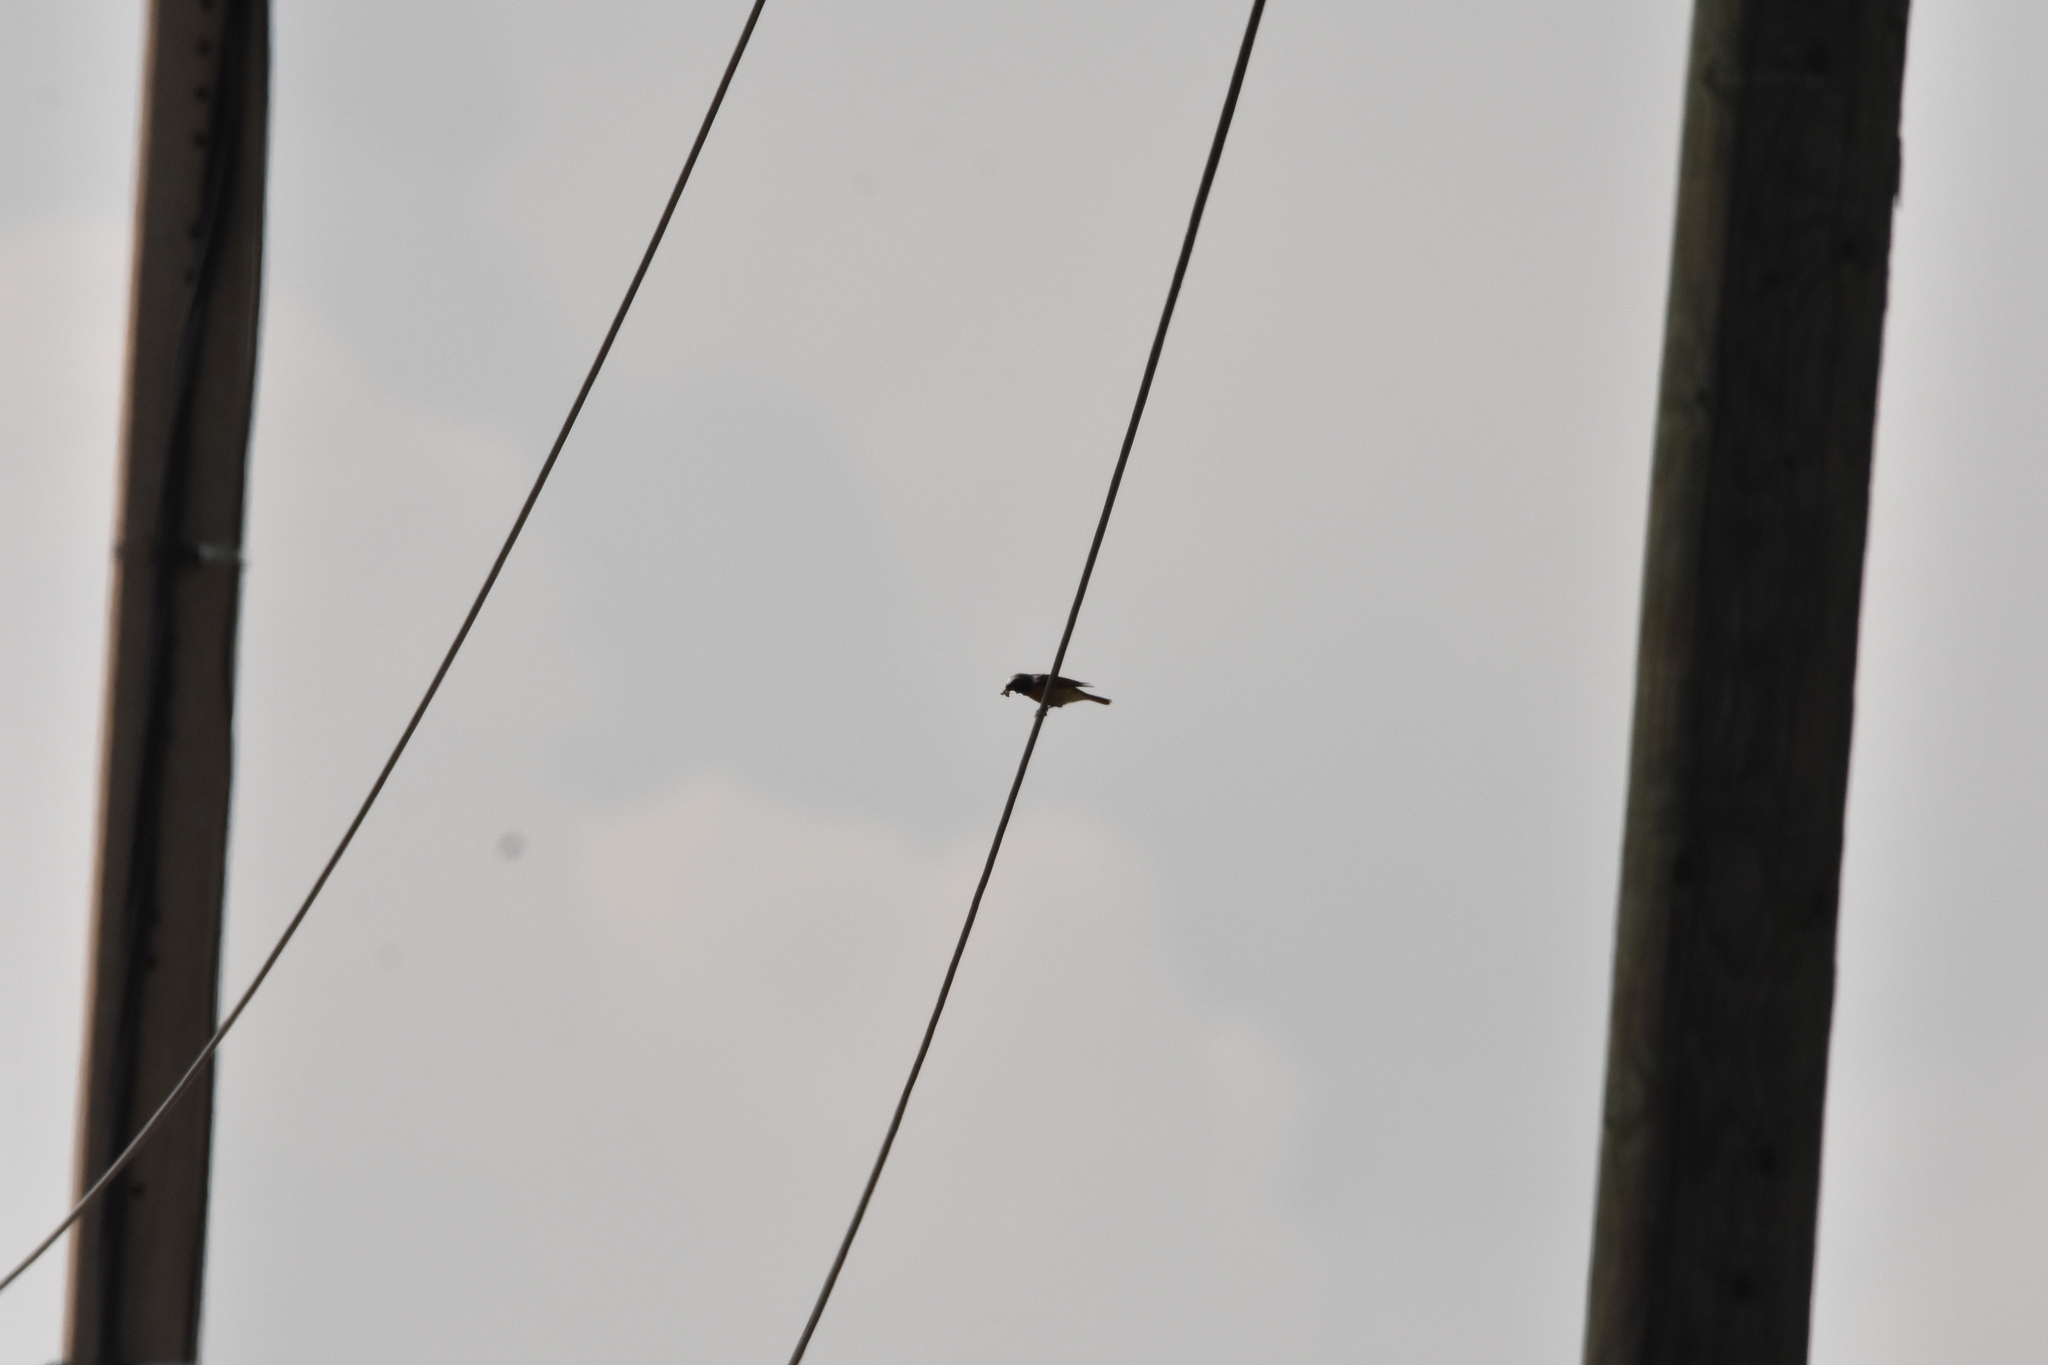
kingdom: Animalia
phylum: Chordata
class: Aves
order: Passeriformes
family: Muscicapidae
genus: Phoenicurus
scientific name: Phoenicurus phoenicurus
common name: Common redstart
